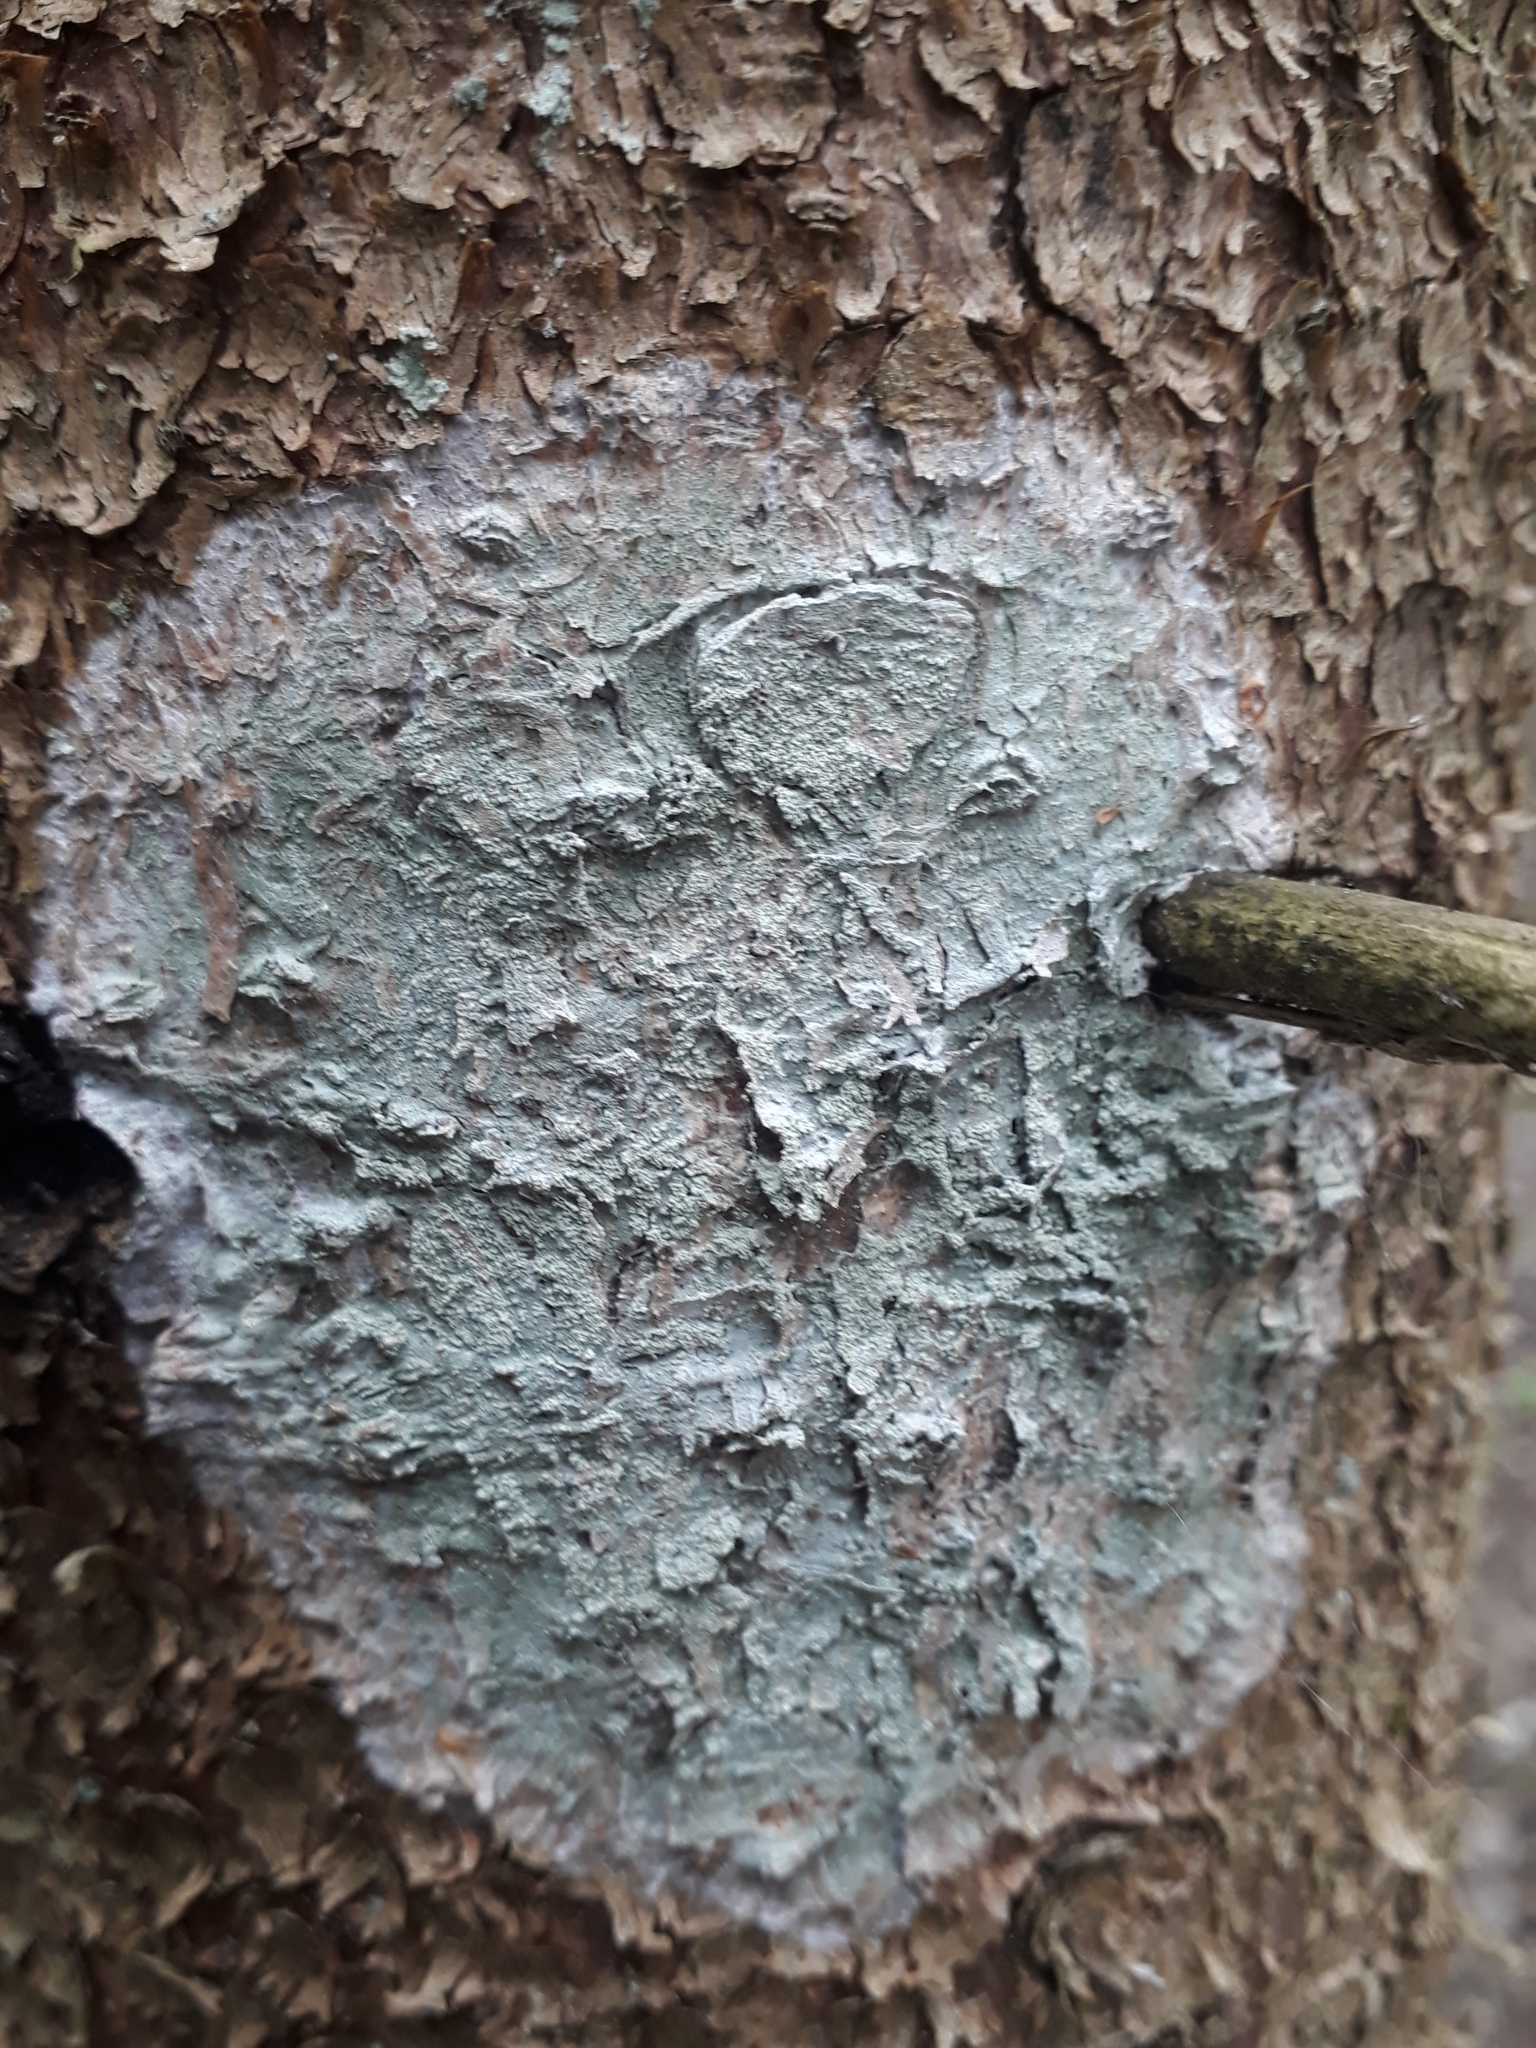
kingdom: Fungi
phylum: Ascomycota
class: Lecanoromycetes
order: Ostropales
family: Phlyctidaceae
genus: Phlyctis
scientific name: Phlyctis argena
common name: Whitewash lichen
